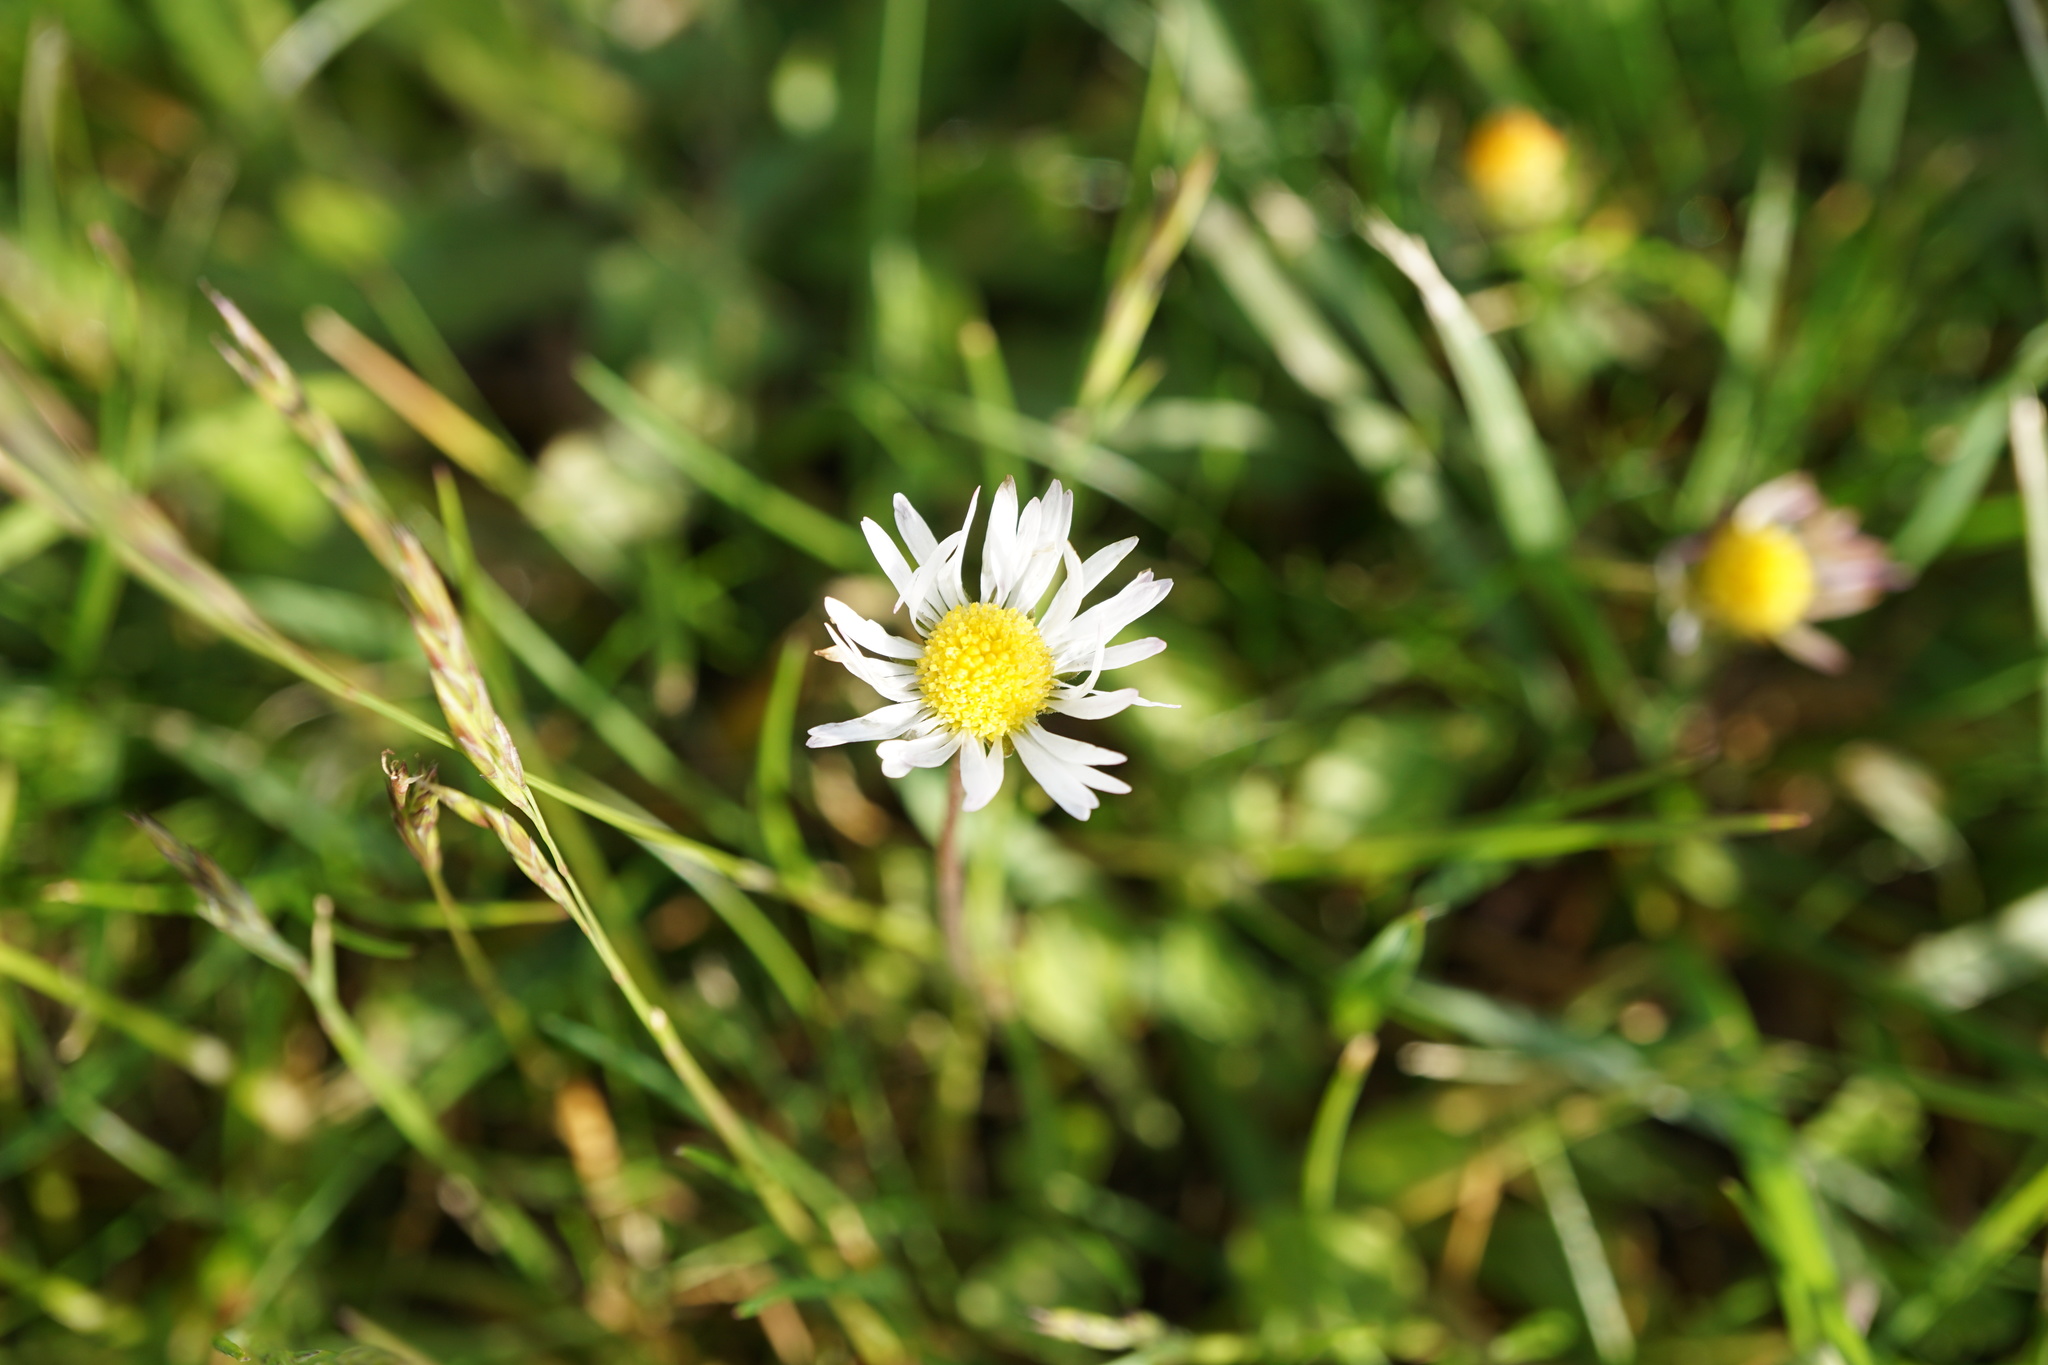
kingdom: Plantae
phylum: Tracheophyta
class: Magnoliopsida
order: Asterales
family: Asteraceae
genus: Bellis
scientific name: Bellis perennis
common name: Lawndaisy
